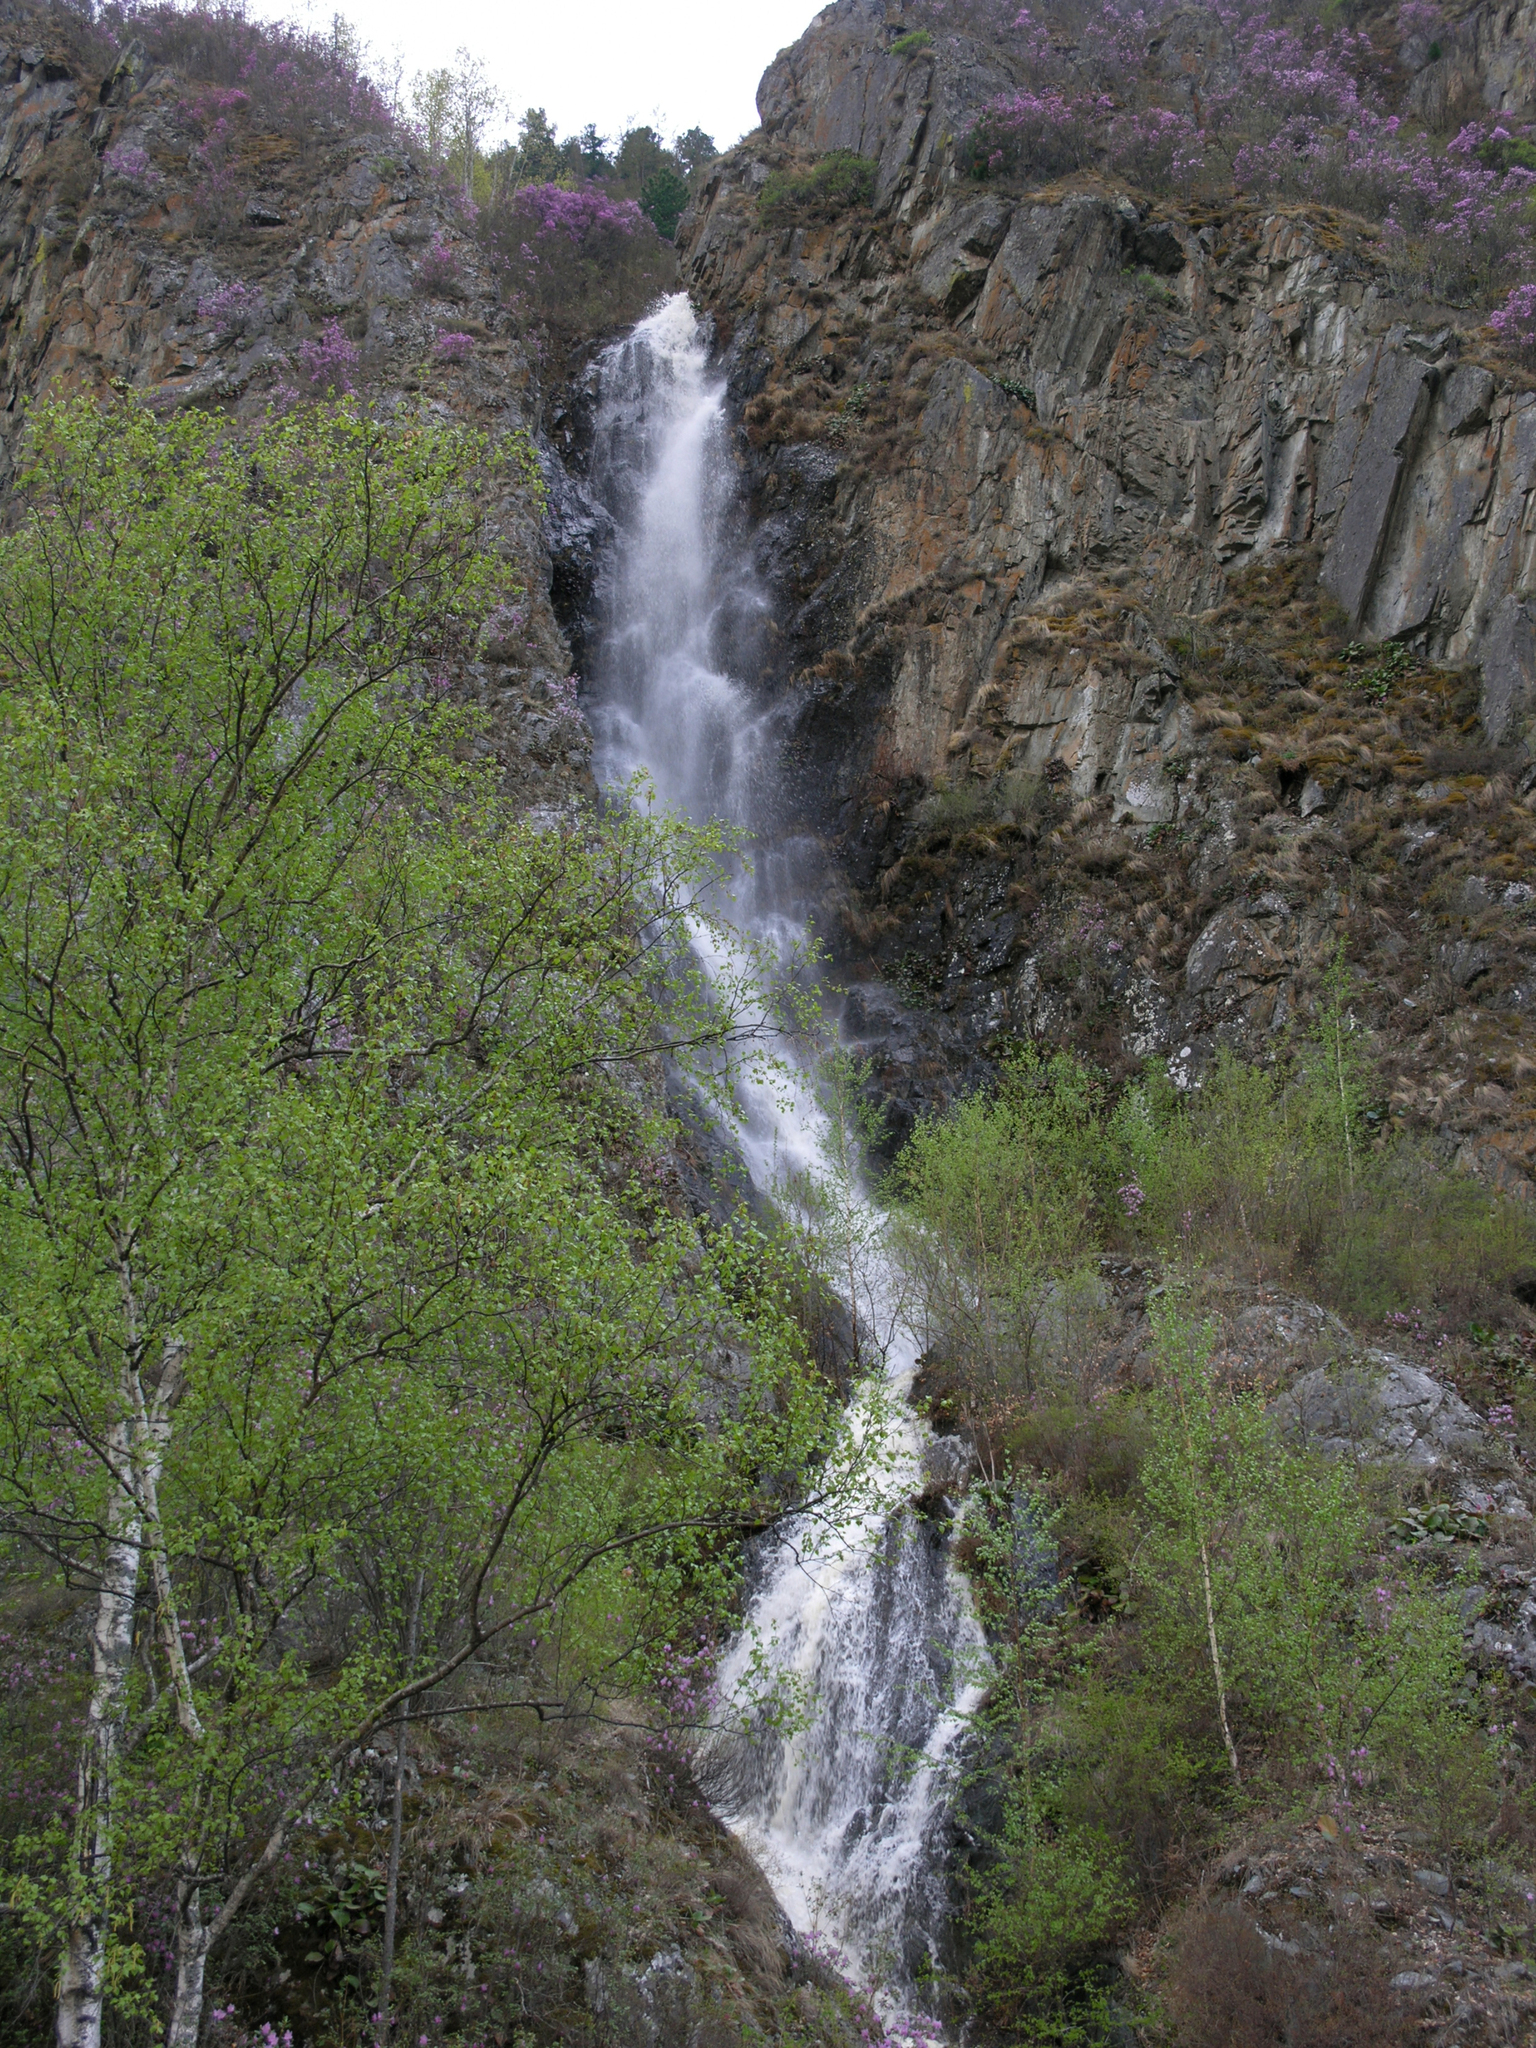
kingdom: Plantae
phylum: Tracheophyta
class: Magnoliopsida
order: Fagales
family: Betulaceae
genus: Betula
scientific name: Betula pendula
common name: Silver birch
